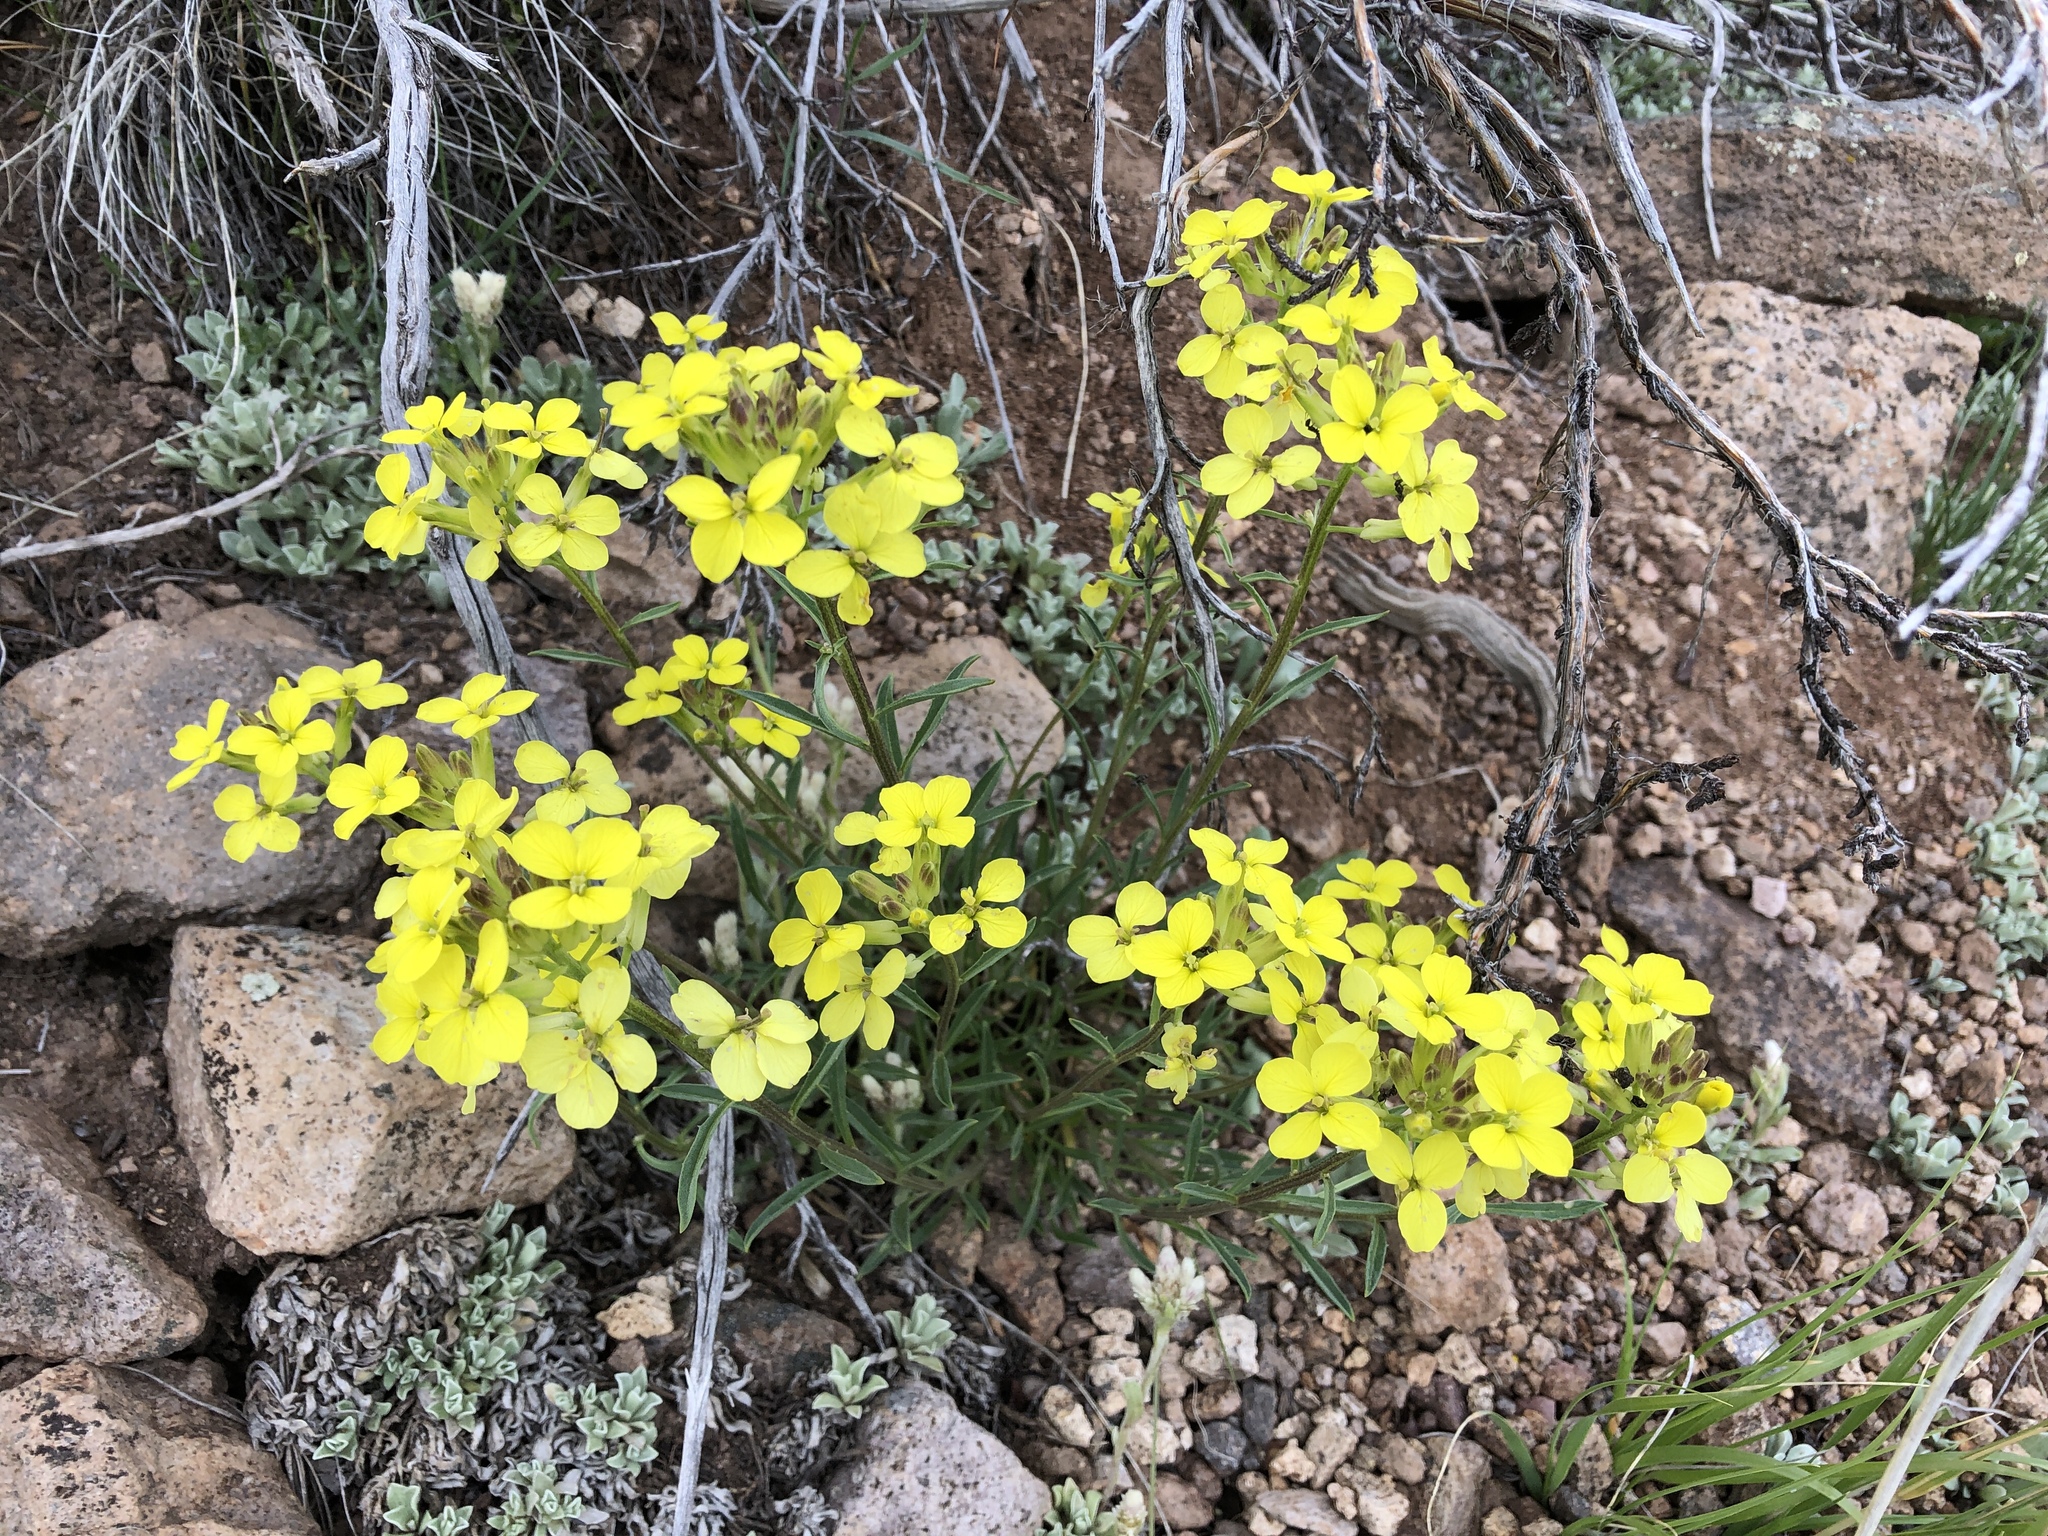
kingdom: Plantae
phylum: Tracheophyta
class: Magnoliopsida
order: Brassicales
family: Brassicaceae
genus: Erysimum
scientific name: Erysimum capitatum
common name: Western wallflower
